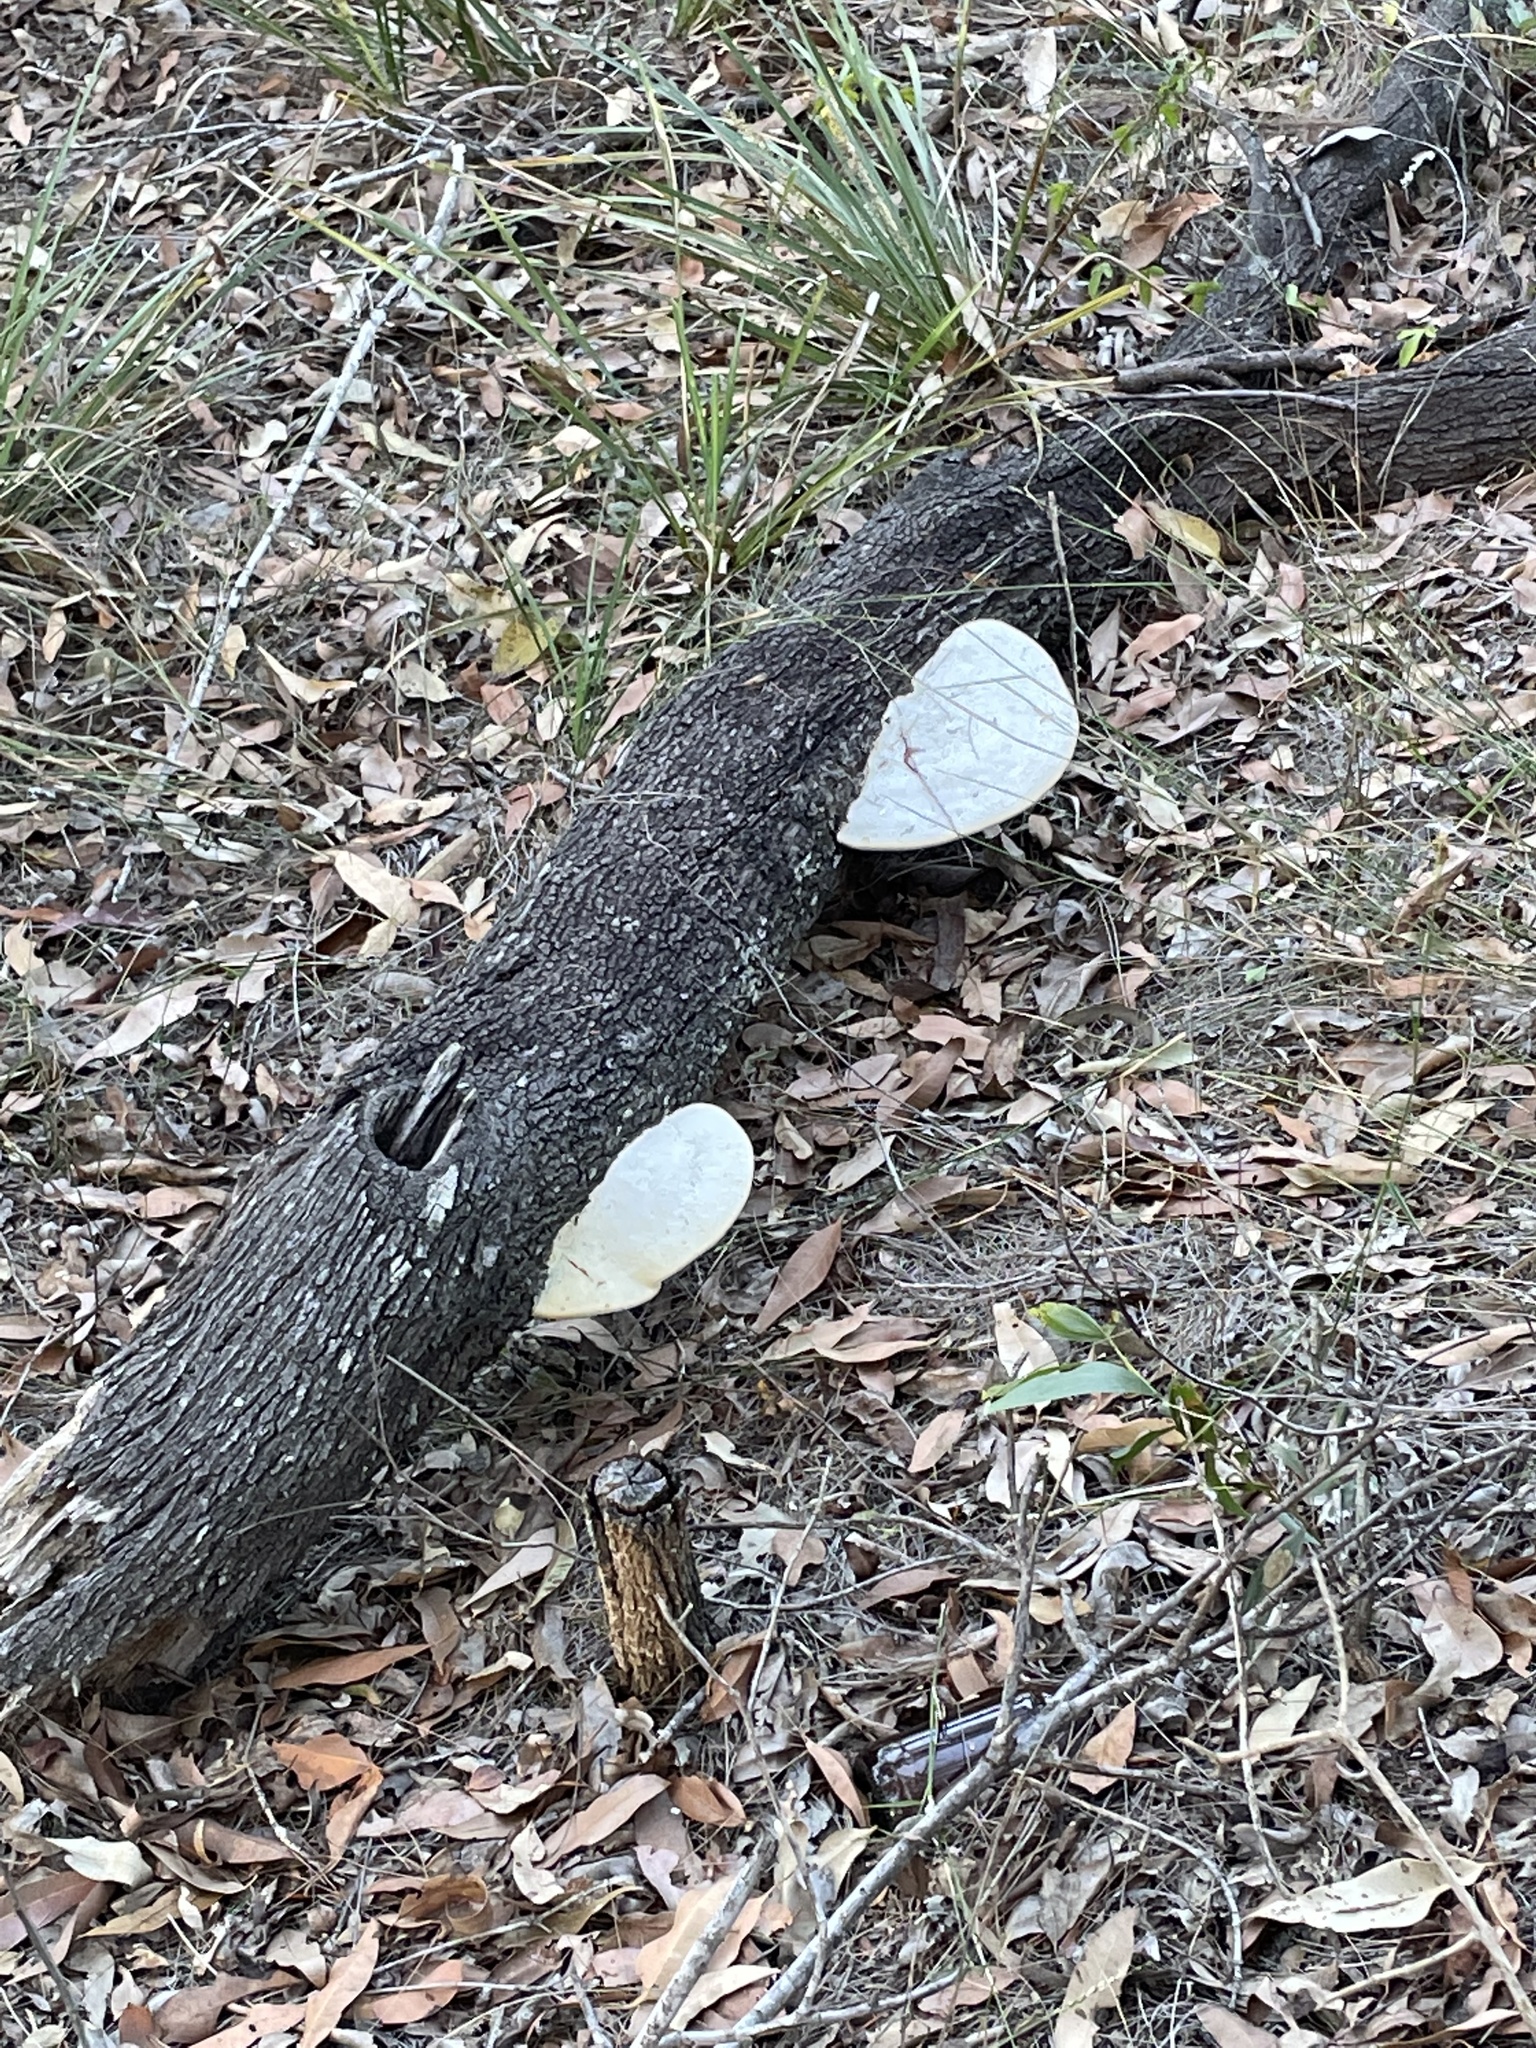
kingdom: Fungi
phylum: Basidiomycota
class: Agaricomycetes
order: Polyporales
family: Polyporaceae
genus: Trametes
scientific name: Trametes lactinea
